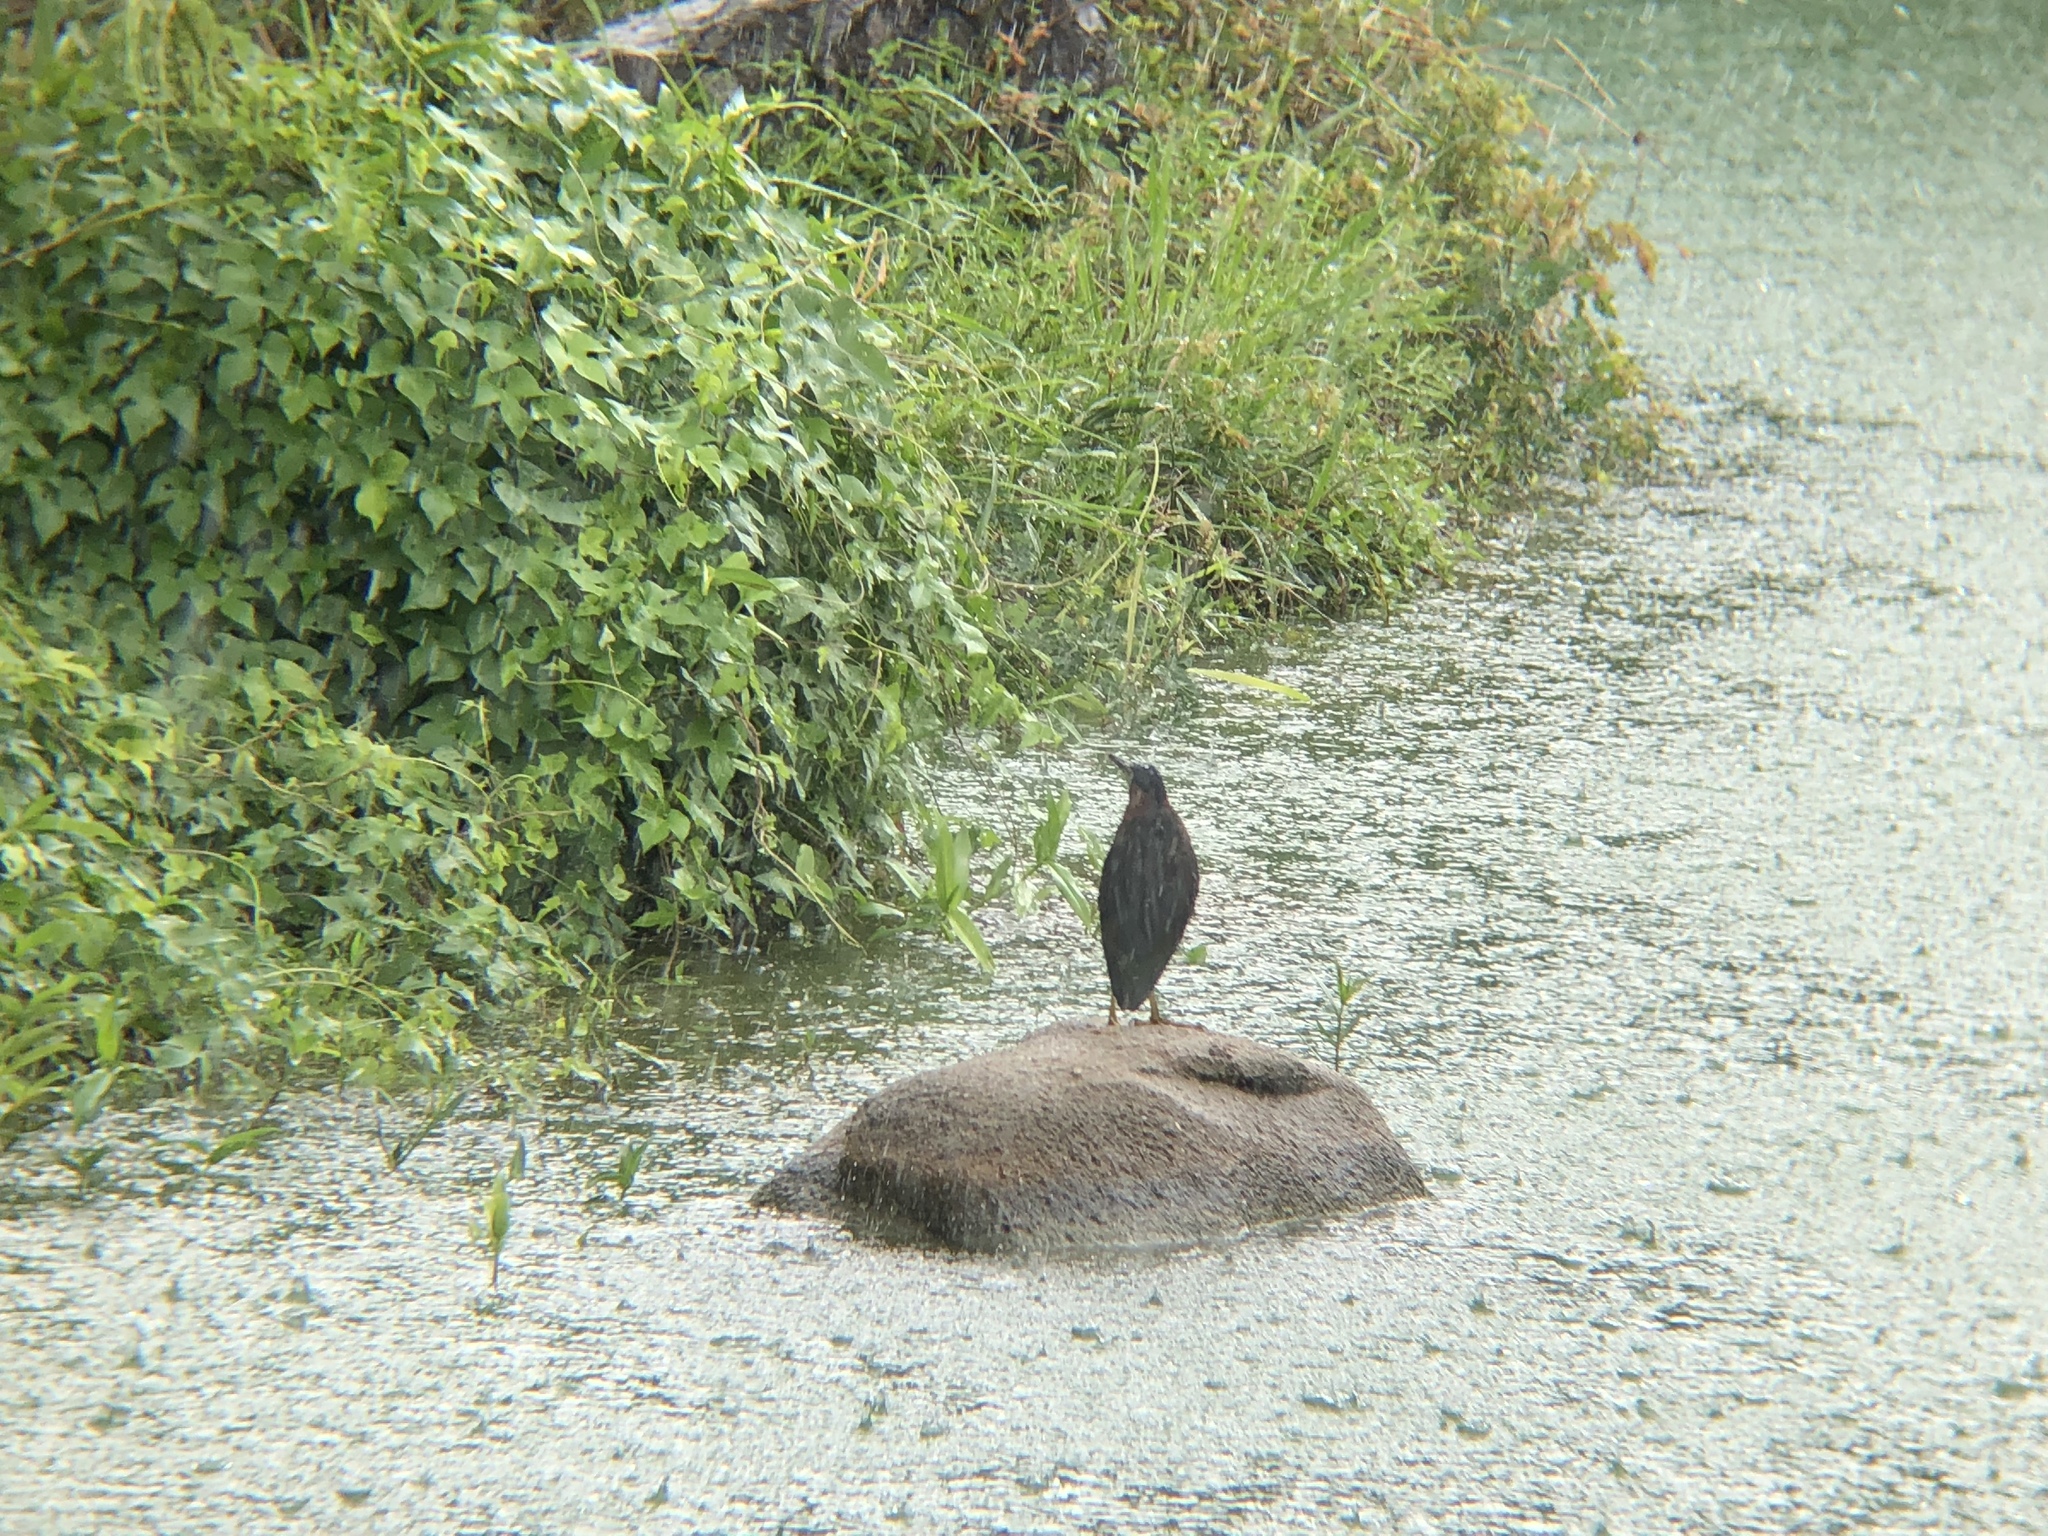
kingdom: Animalia
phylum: Chordata
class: Aves
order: Pelecaniformes
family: Ardeidae
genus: Butorides
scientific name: Butorides virescens
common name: Green heron
